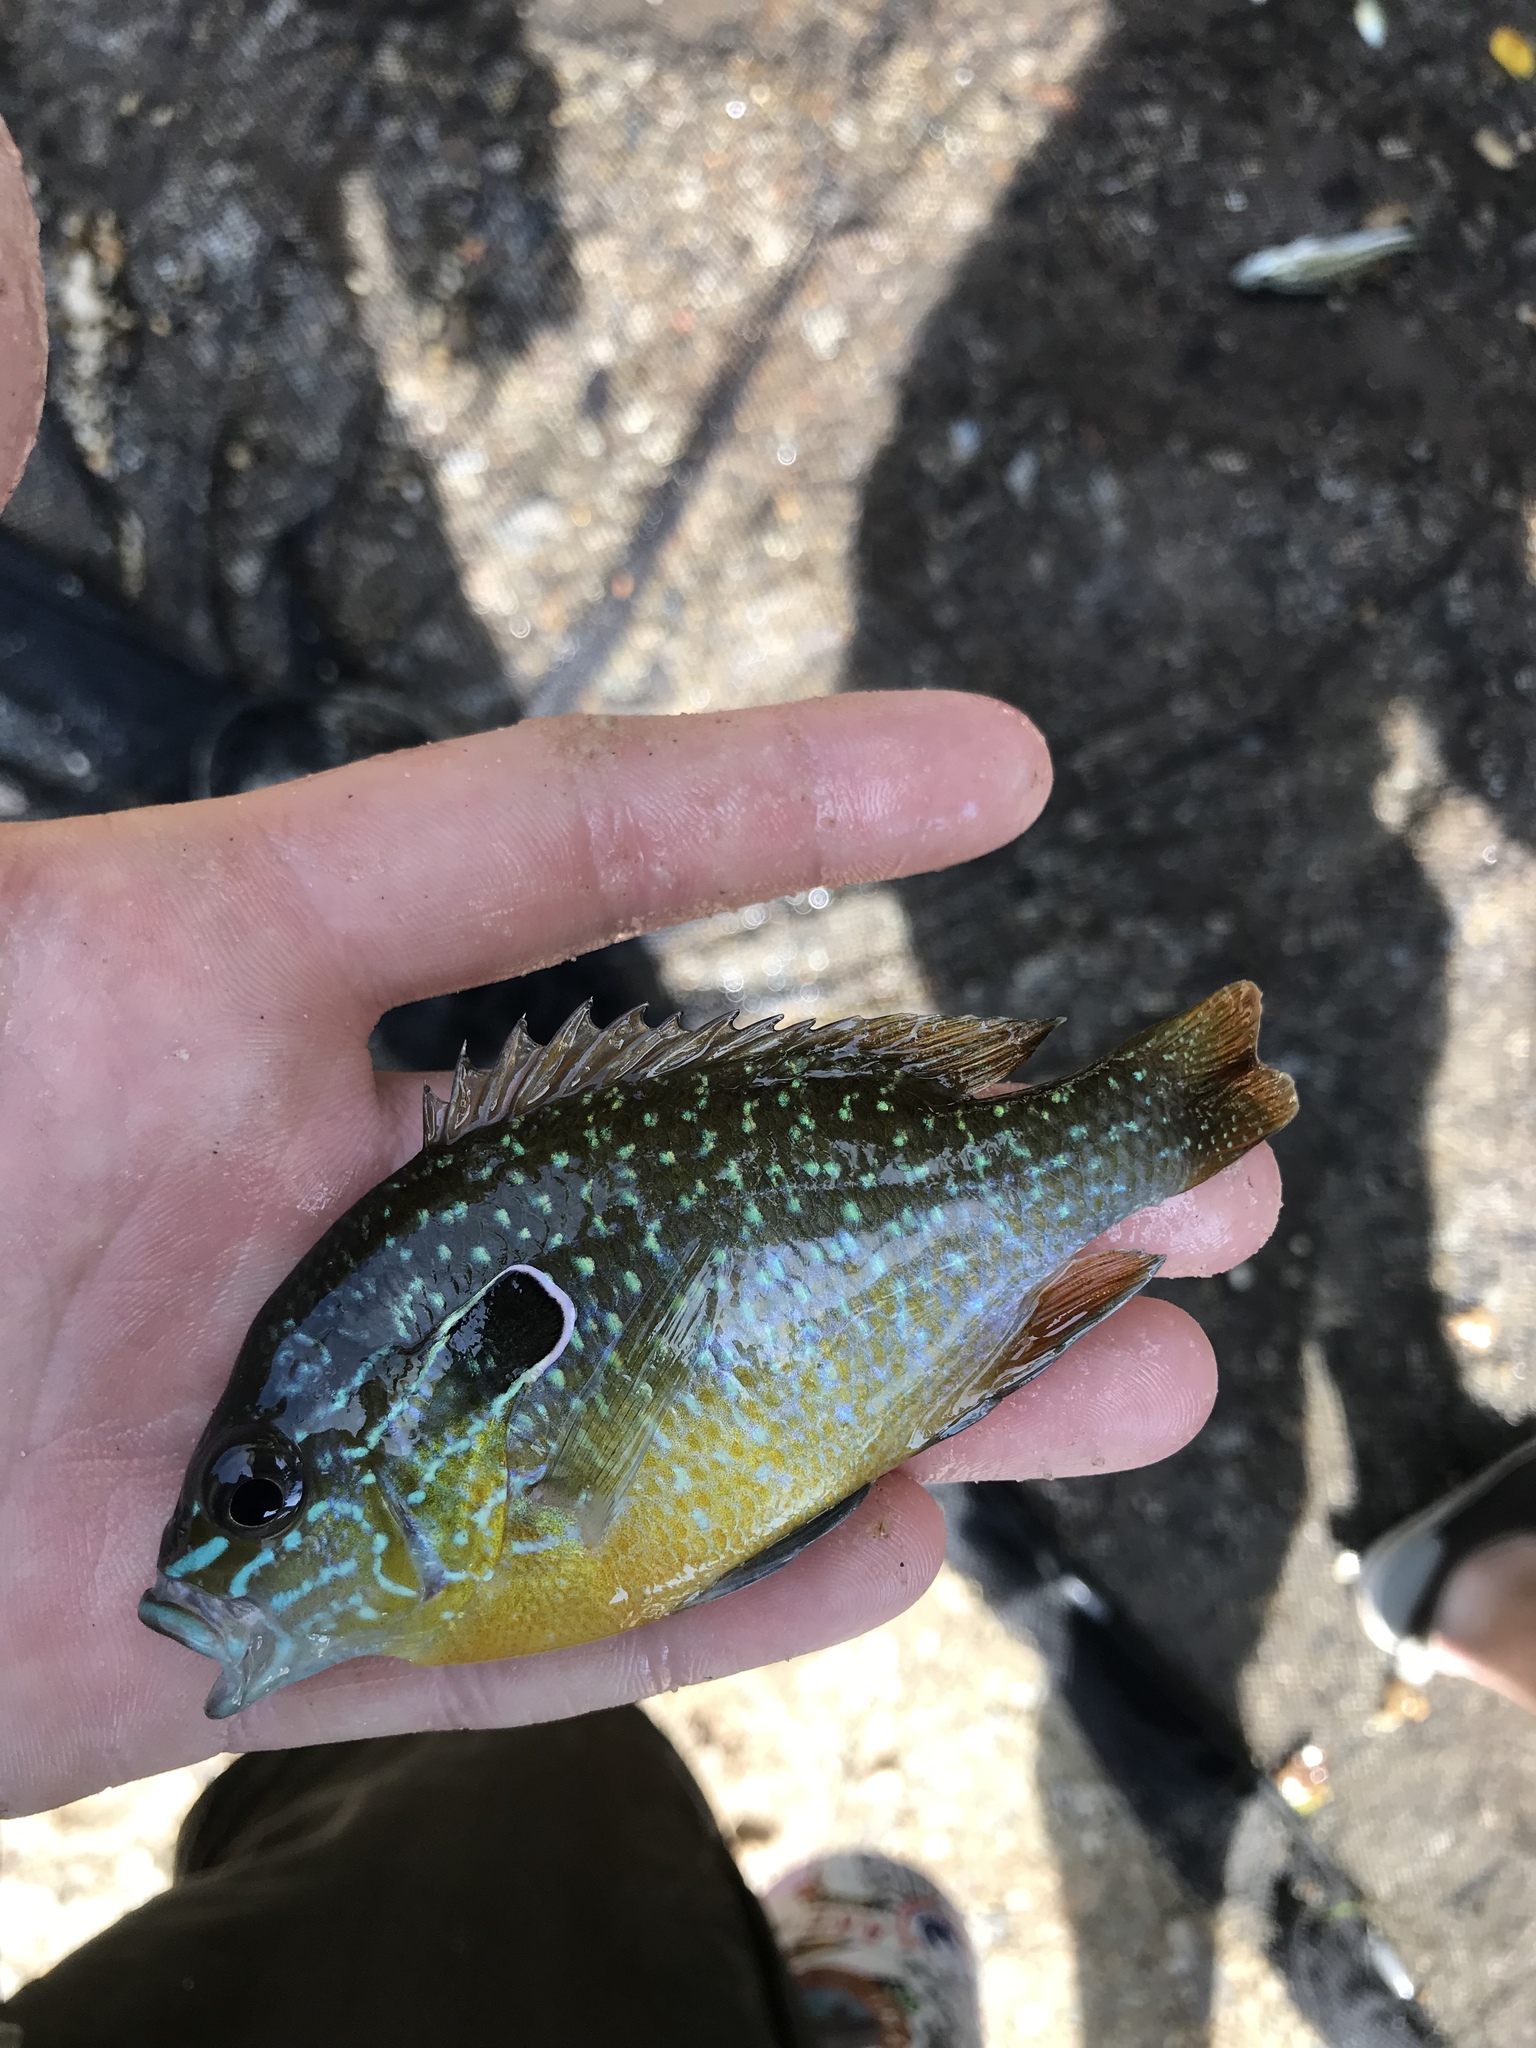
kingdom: Animalia
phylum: Chordata
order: Perciformes
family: Centrarchidae
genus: Lepomis
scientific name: Lepomis megalotis
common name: Longear sunfish
